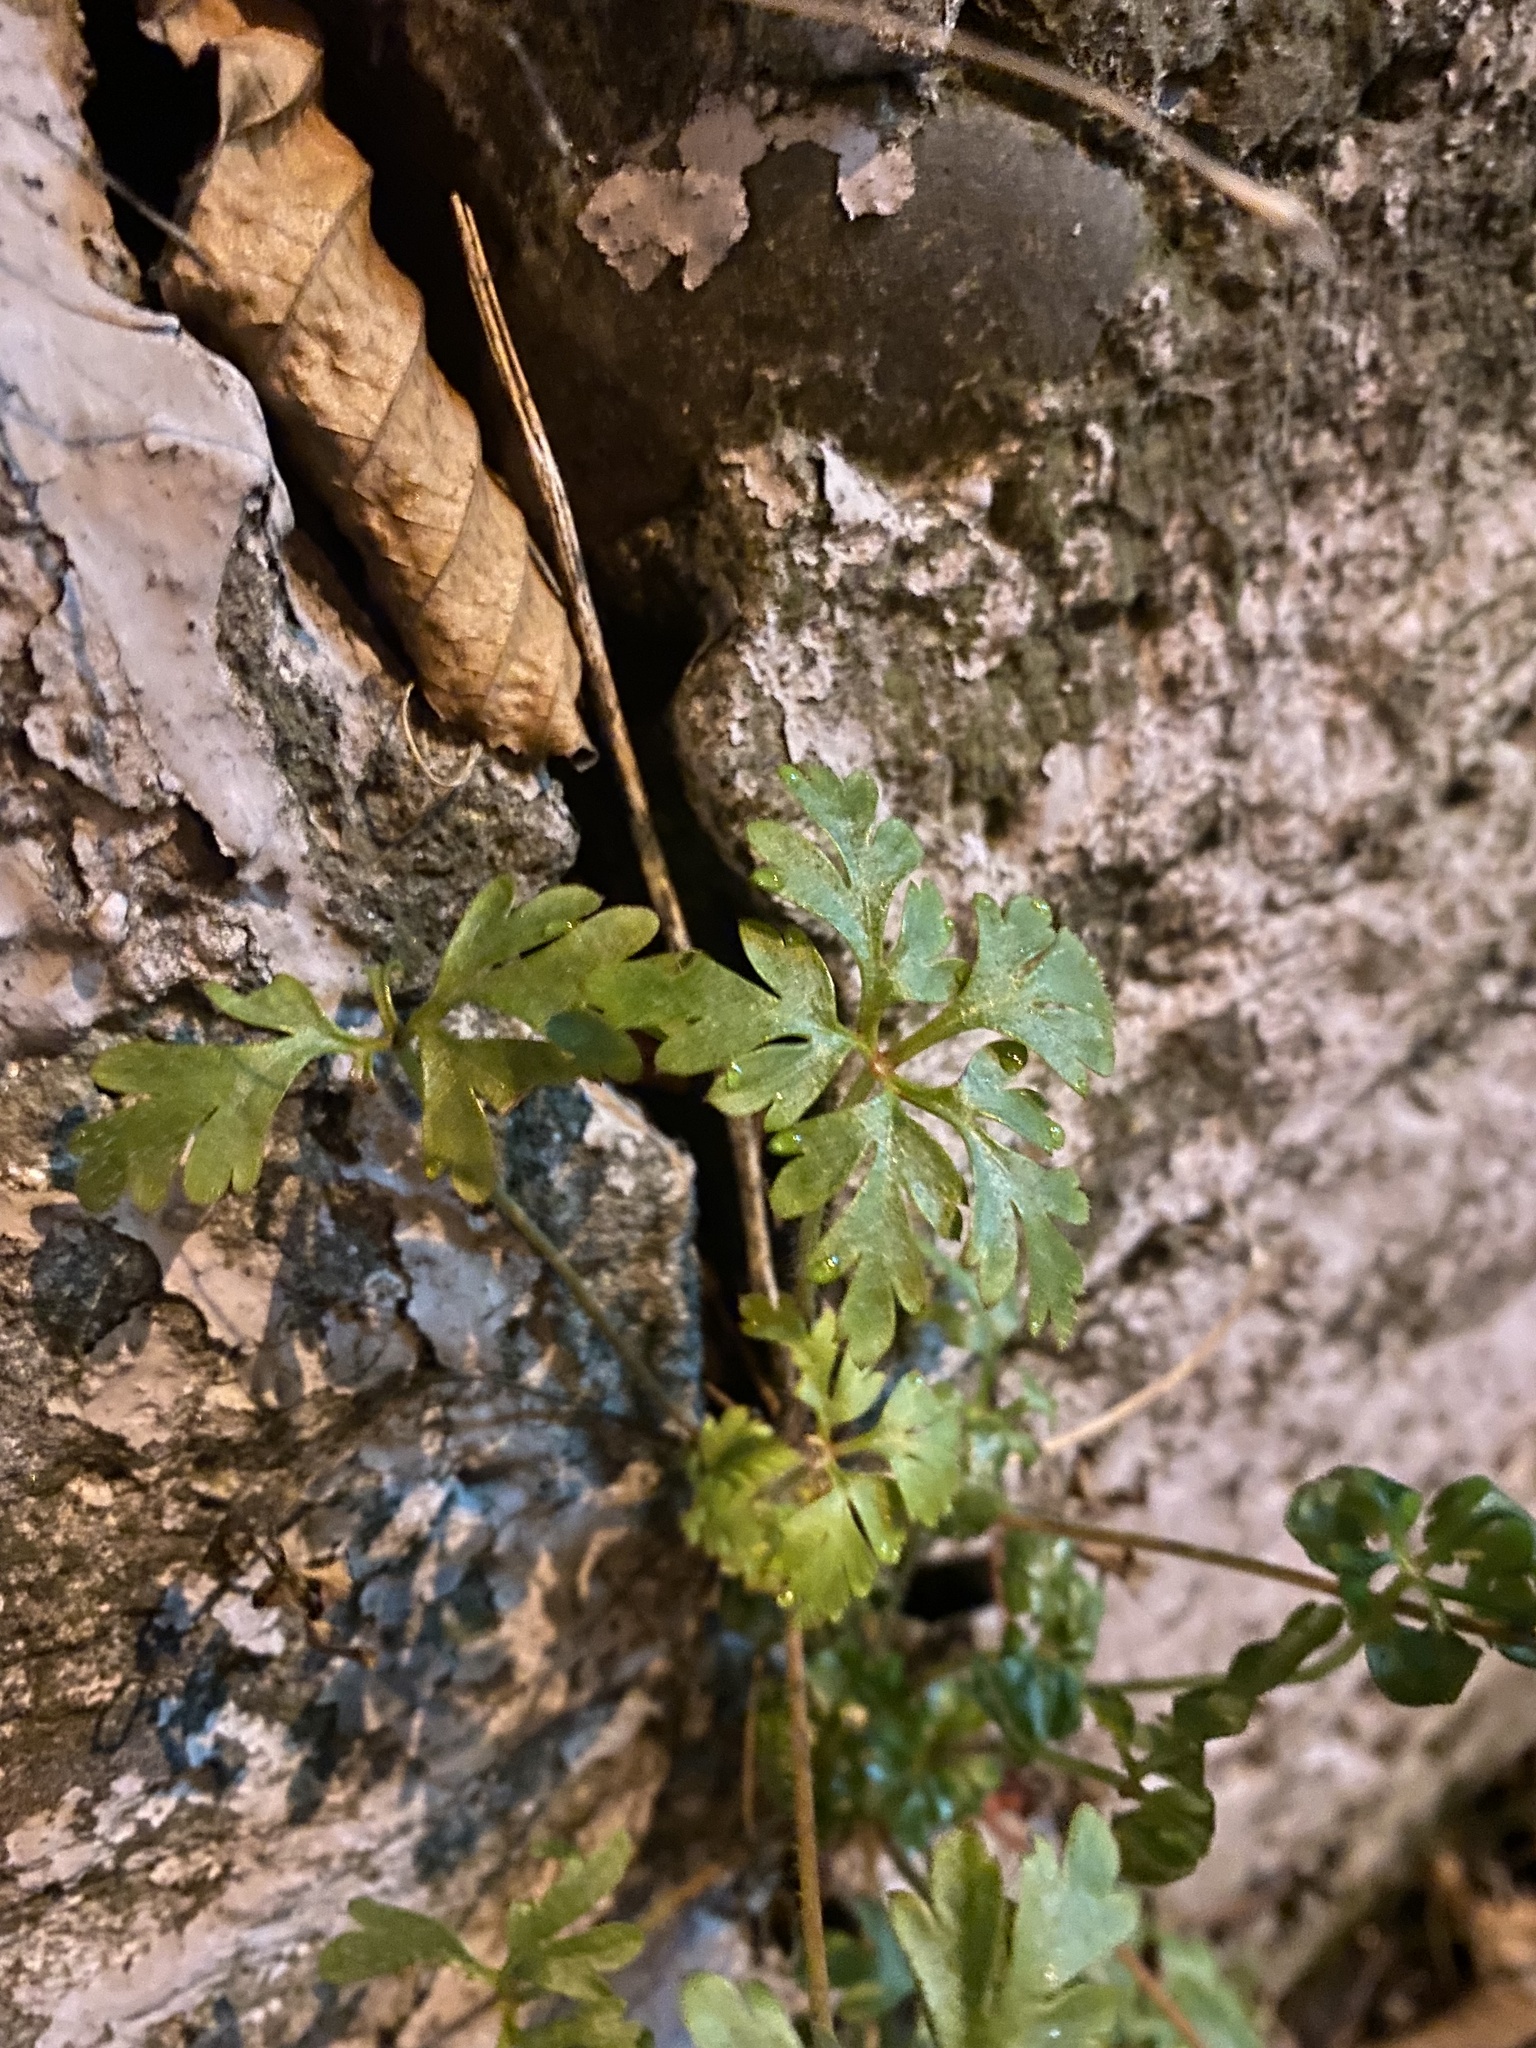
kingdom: Plantae
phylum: Tracheophyta
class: Magnoliopsida
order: Geraniales
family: Geraniaceae
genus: Geranium
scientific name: Geranium robertianum
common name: Herb-robert
